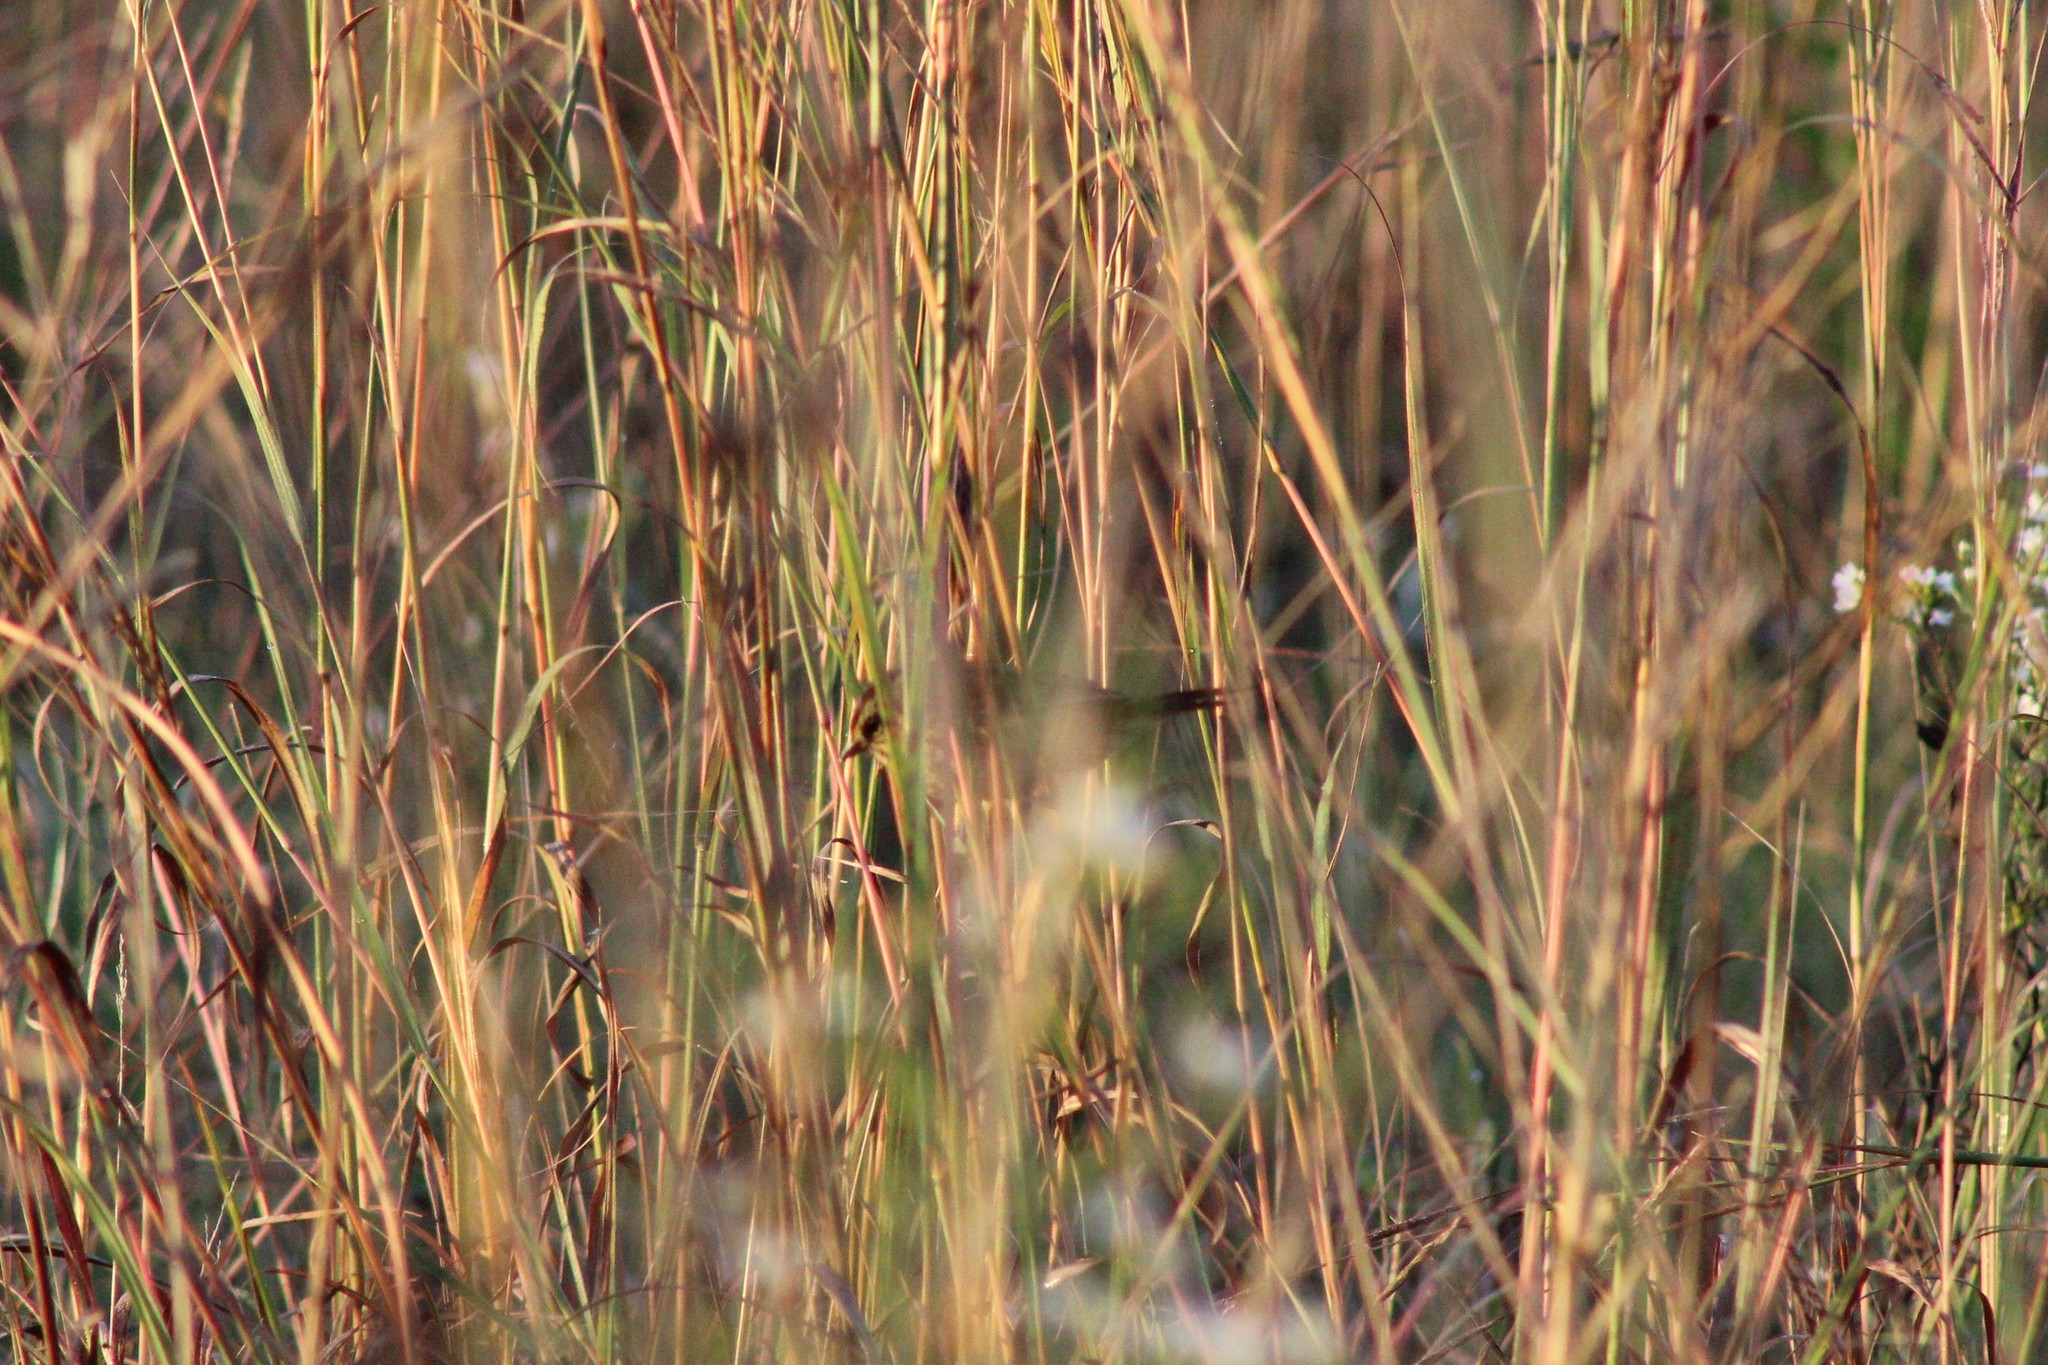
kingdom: Animalia
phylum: Chordata
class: Aves
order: Passeriformes
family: Passerellidae
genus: Melospiza
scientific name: Melospiza georgiana
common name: Swamp sparrow
